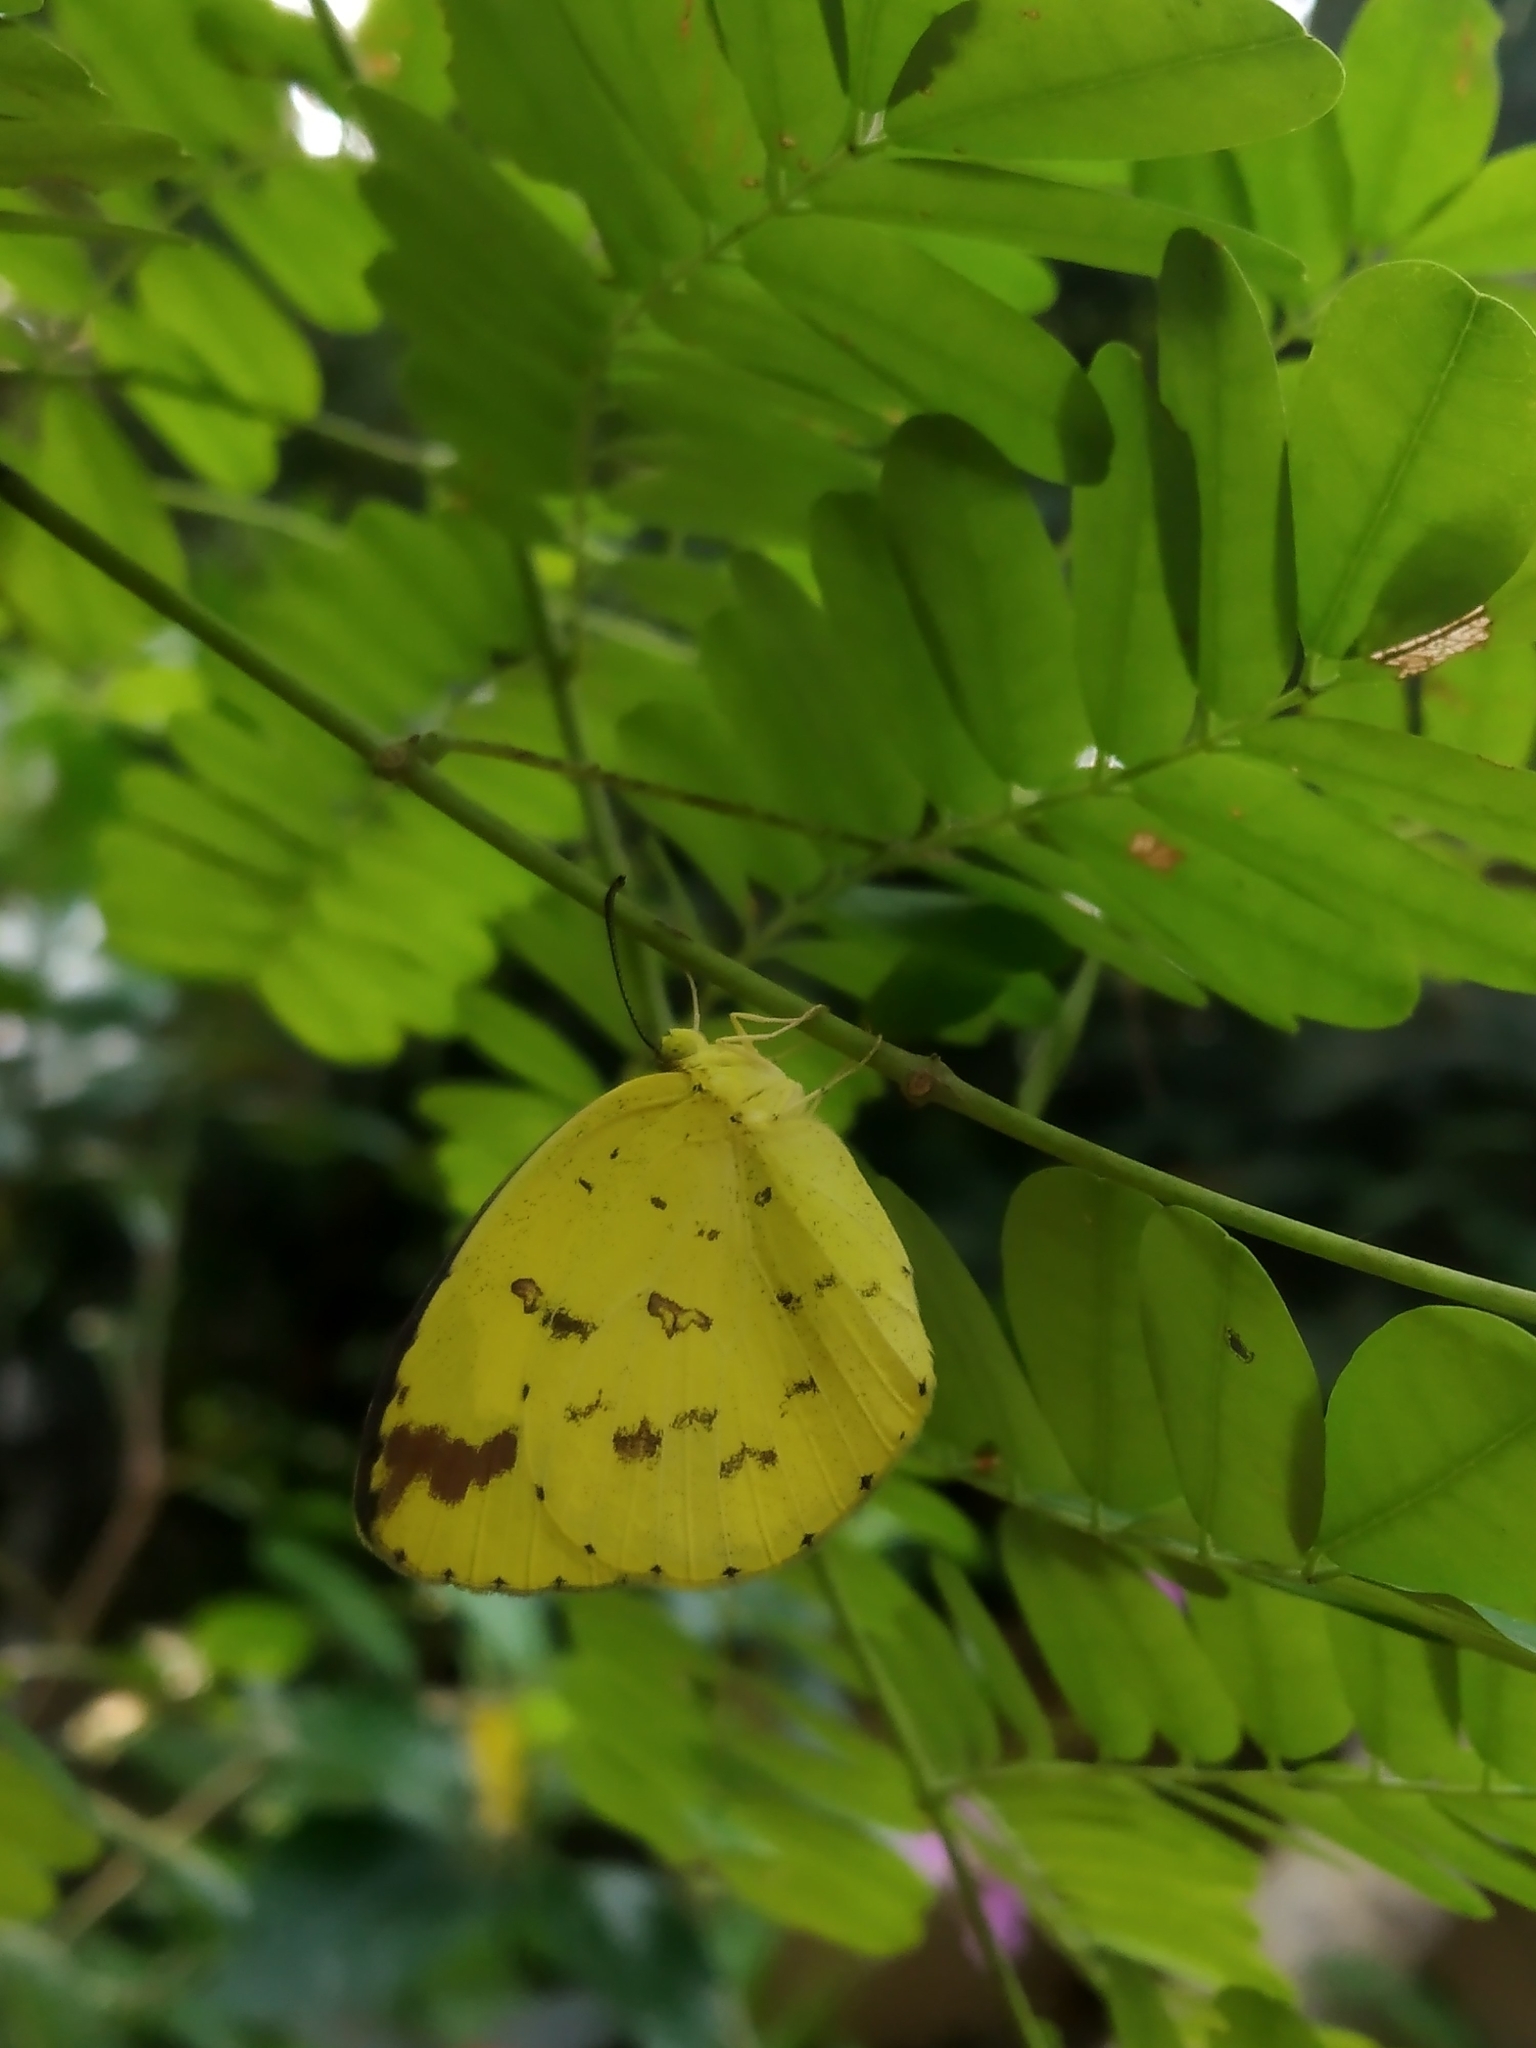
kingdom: Animalia
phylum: Arthropoda
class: Insecta
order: Lepidoptera
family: Pieridae
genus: Eurema
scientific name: Eurema hecabe
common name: Pale grass yellow
